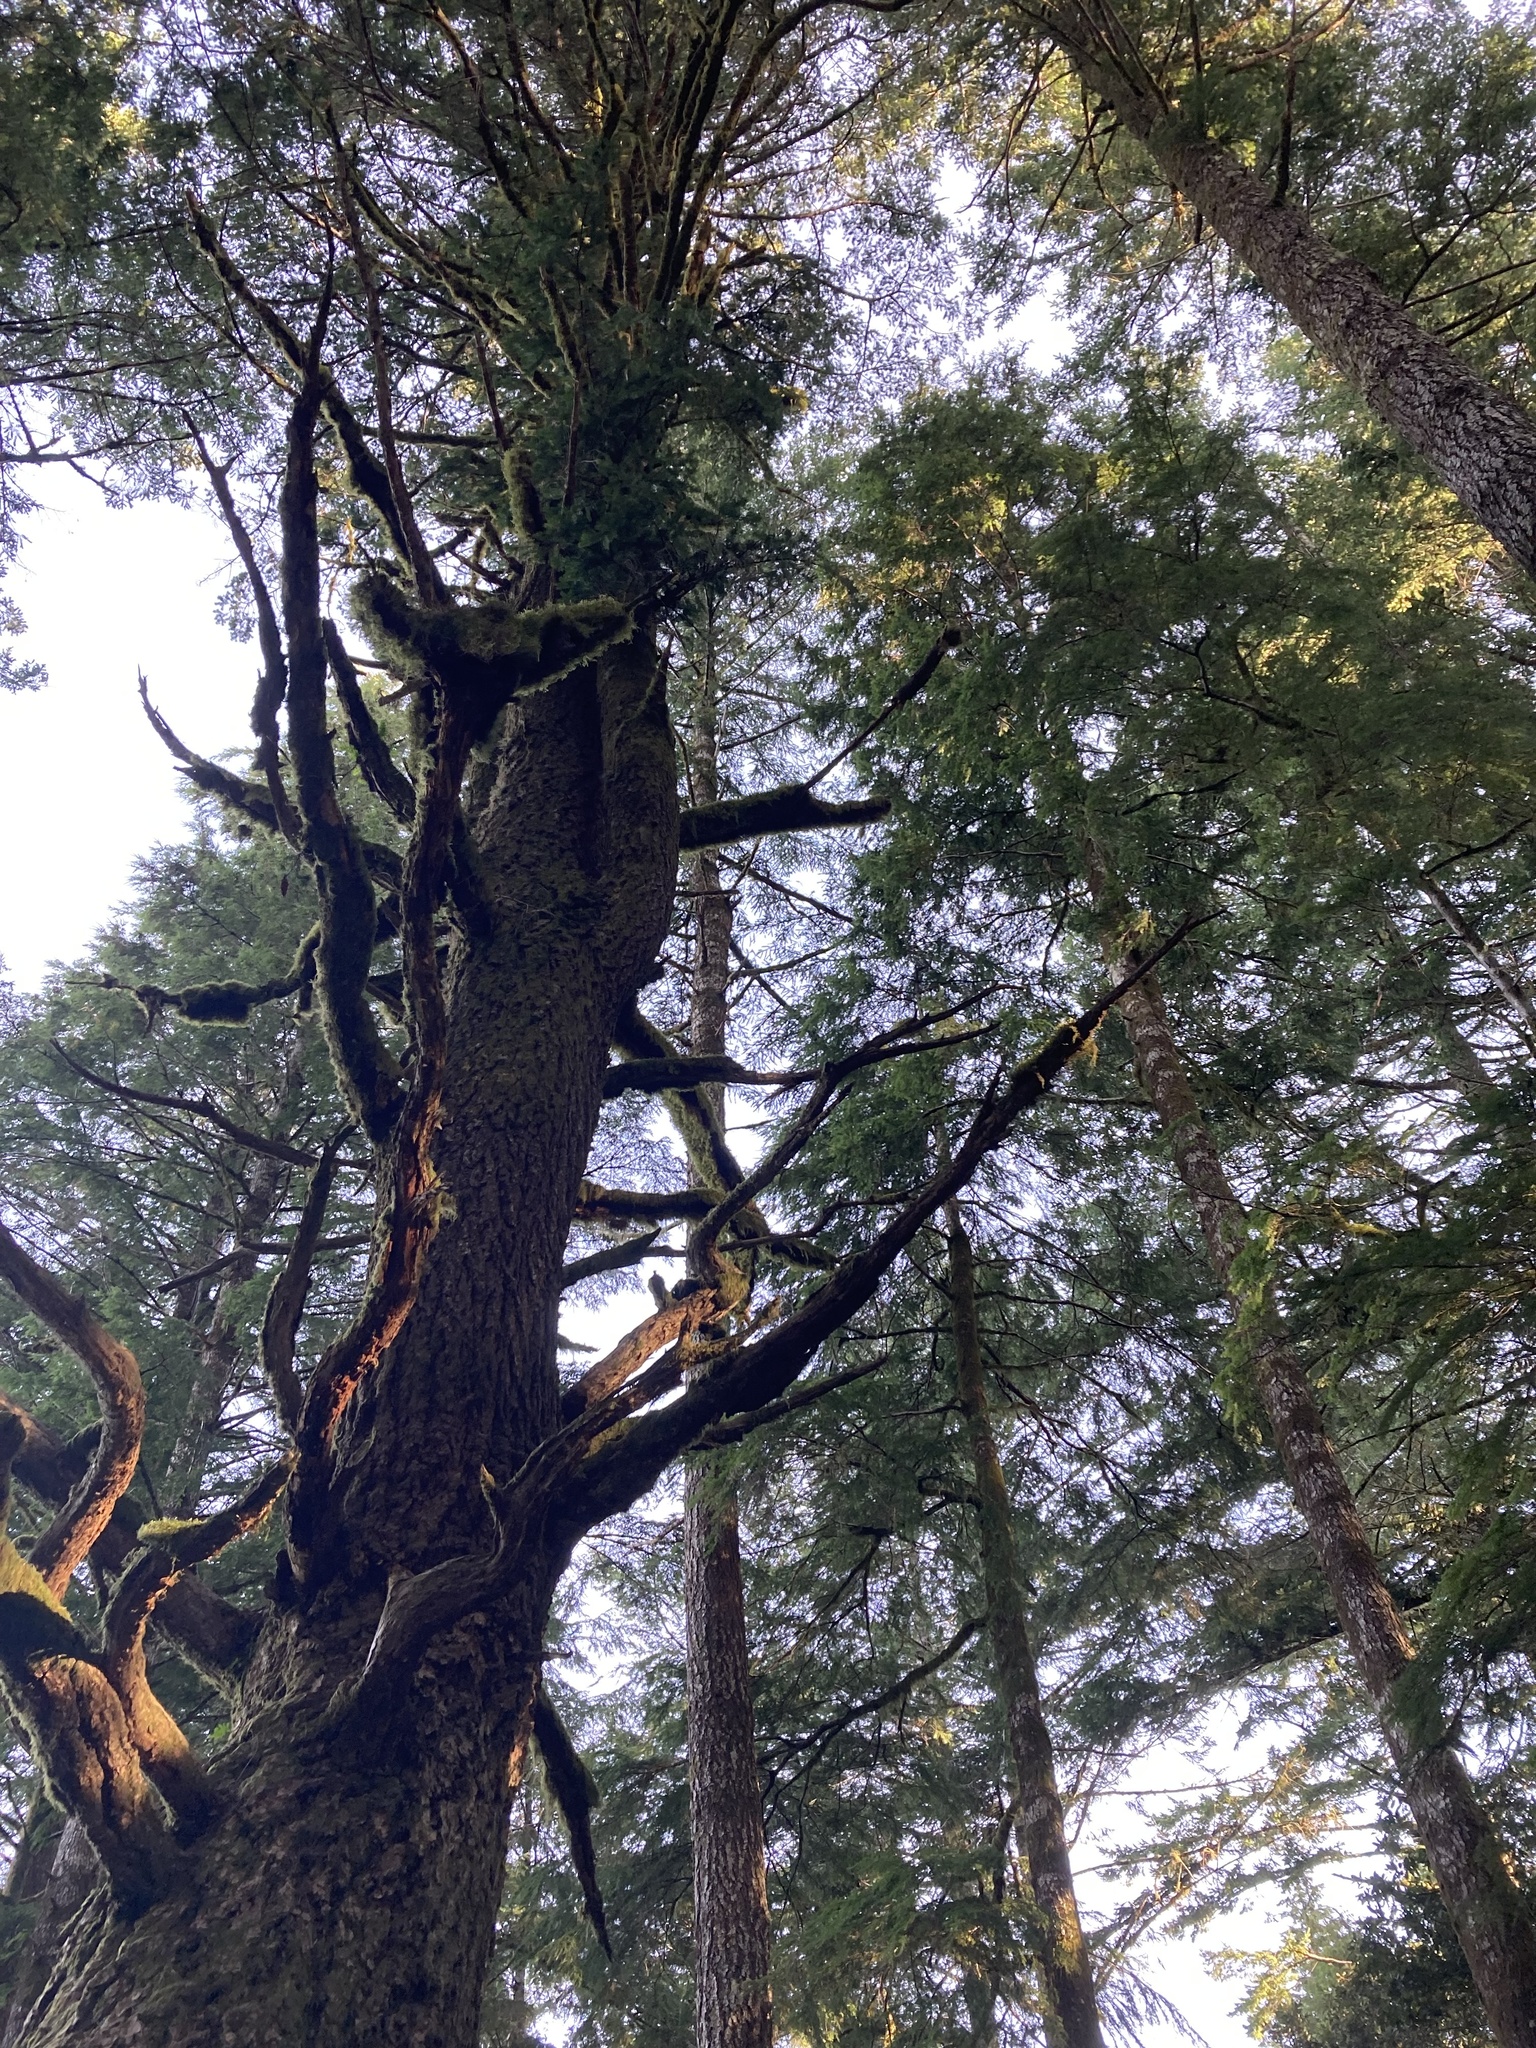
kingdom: Plantae
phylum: Tracheophyta
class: Pinopsida
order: Pinales
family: Pinaceae
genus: Pseudotsuga
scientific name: Pseudotsuga menziesii
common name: Douglas fir
